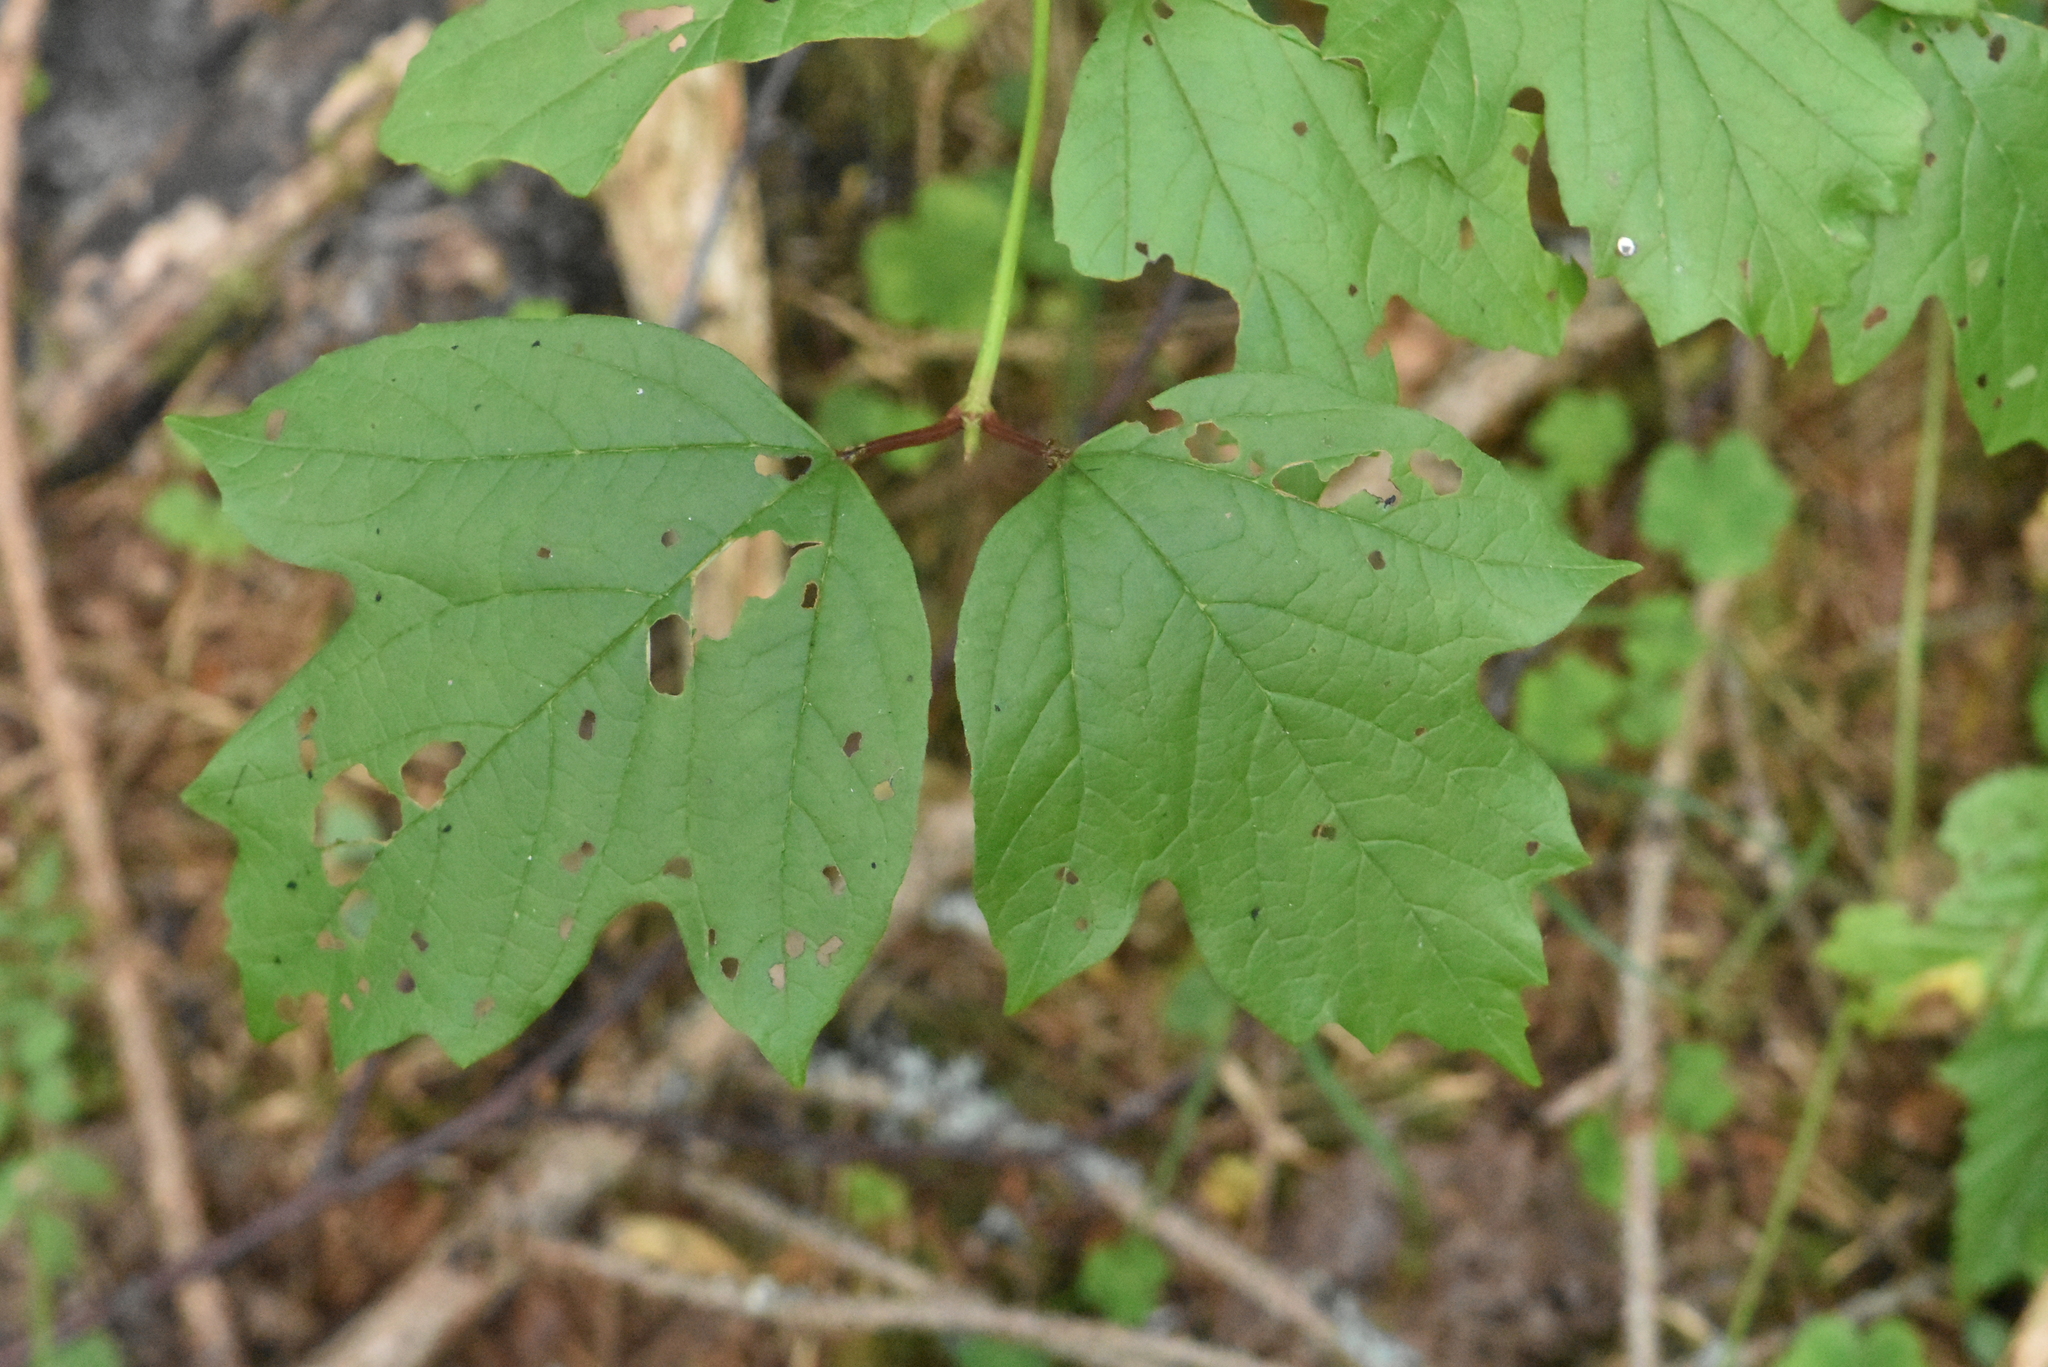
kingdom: Plantae
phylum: Tracheophyta
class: Magnoliopsida
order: Dipsacales
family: Viburnaceae
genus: Viburnum
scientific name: Viburnum opulus
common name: Guelder-rose
